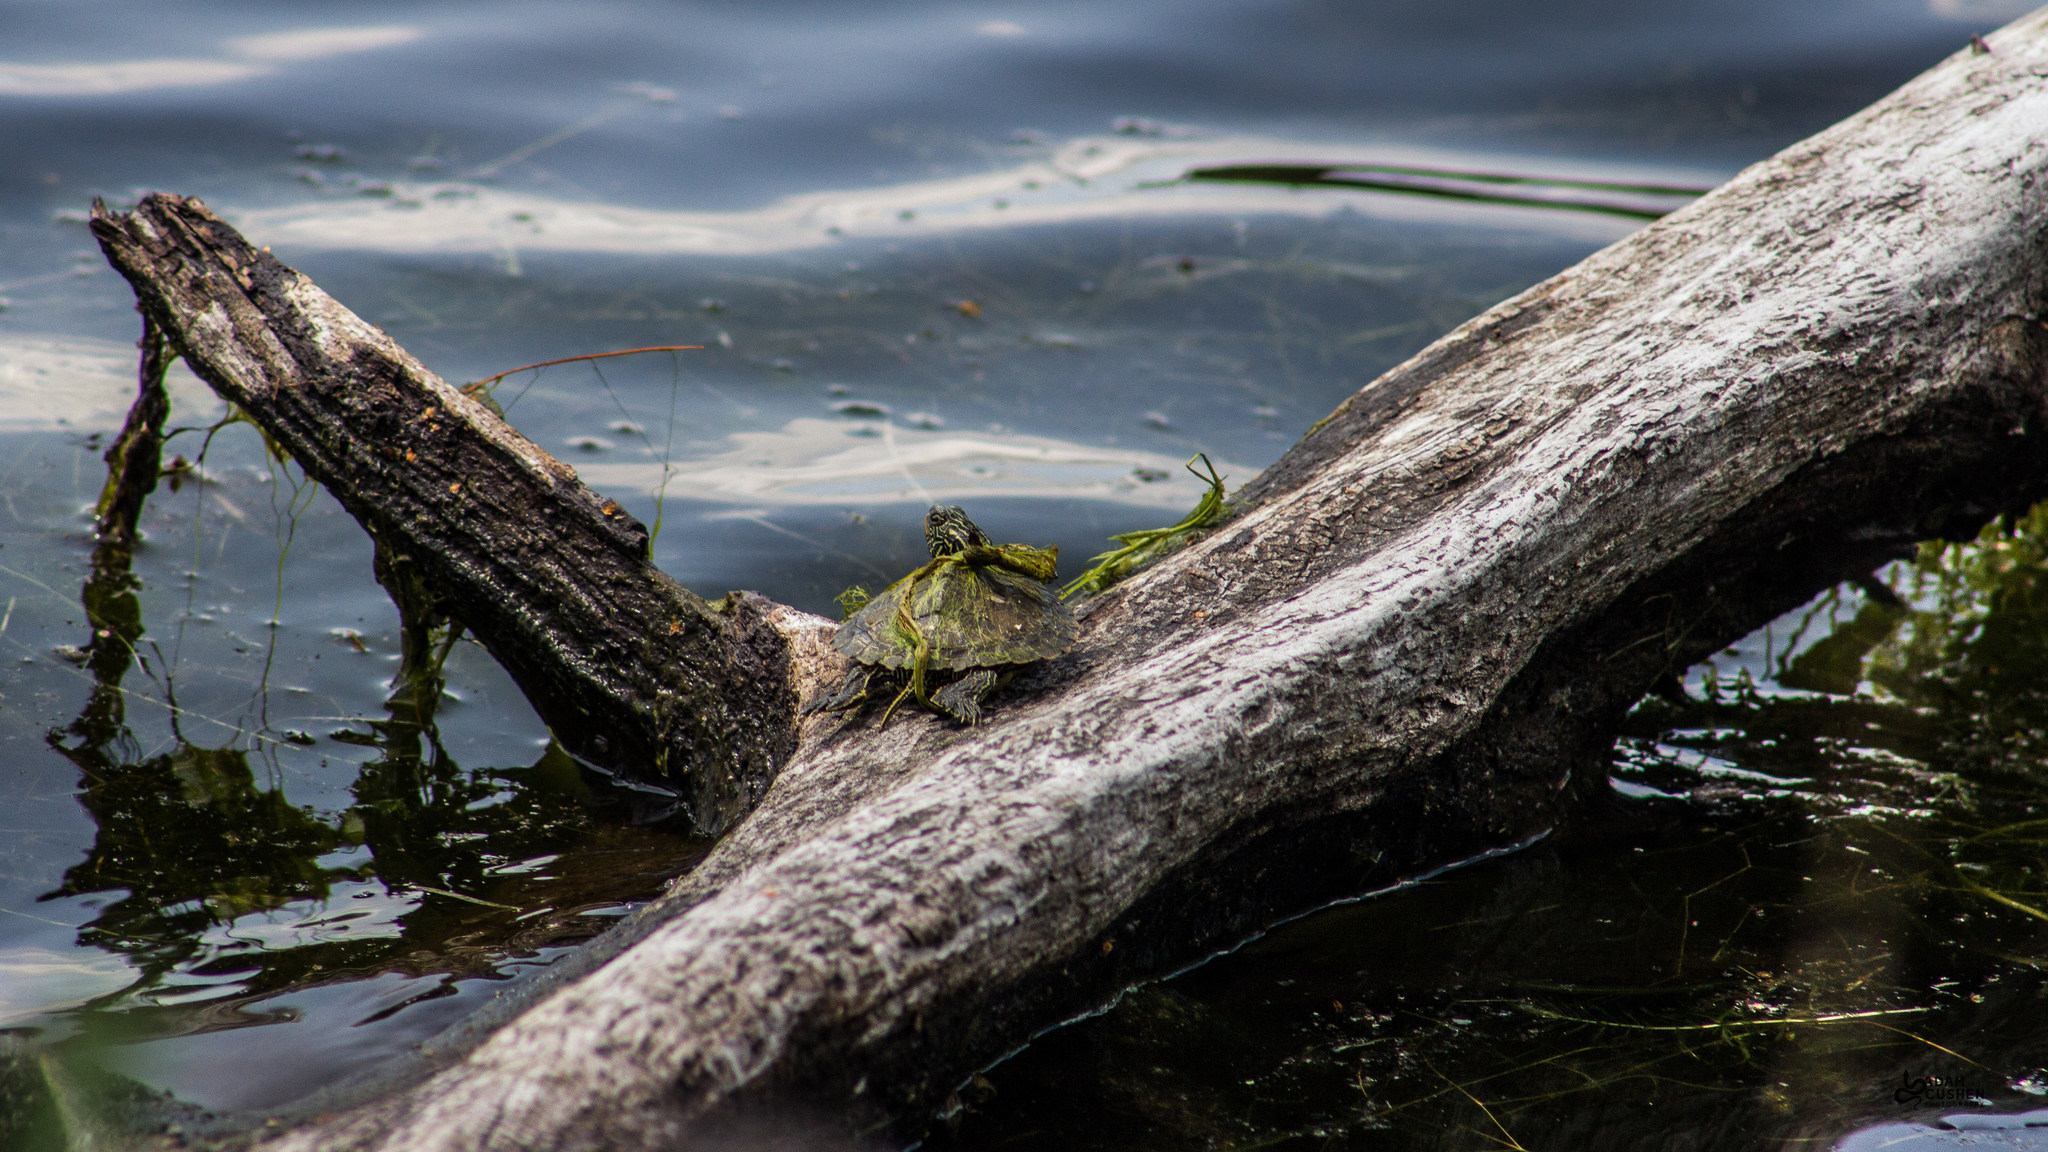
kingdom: Animalia
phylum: Chordata
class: Testudines
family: Emydidae
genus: Graptemys
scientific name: Graptemys geographica
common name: Common map turtle
